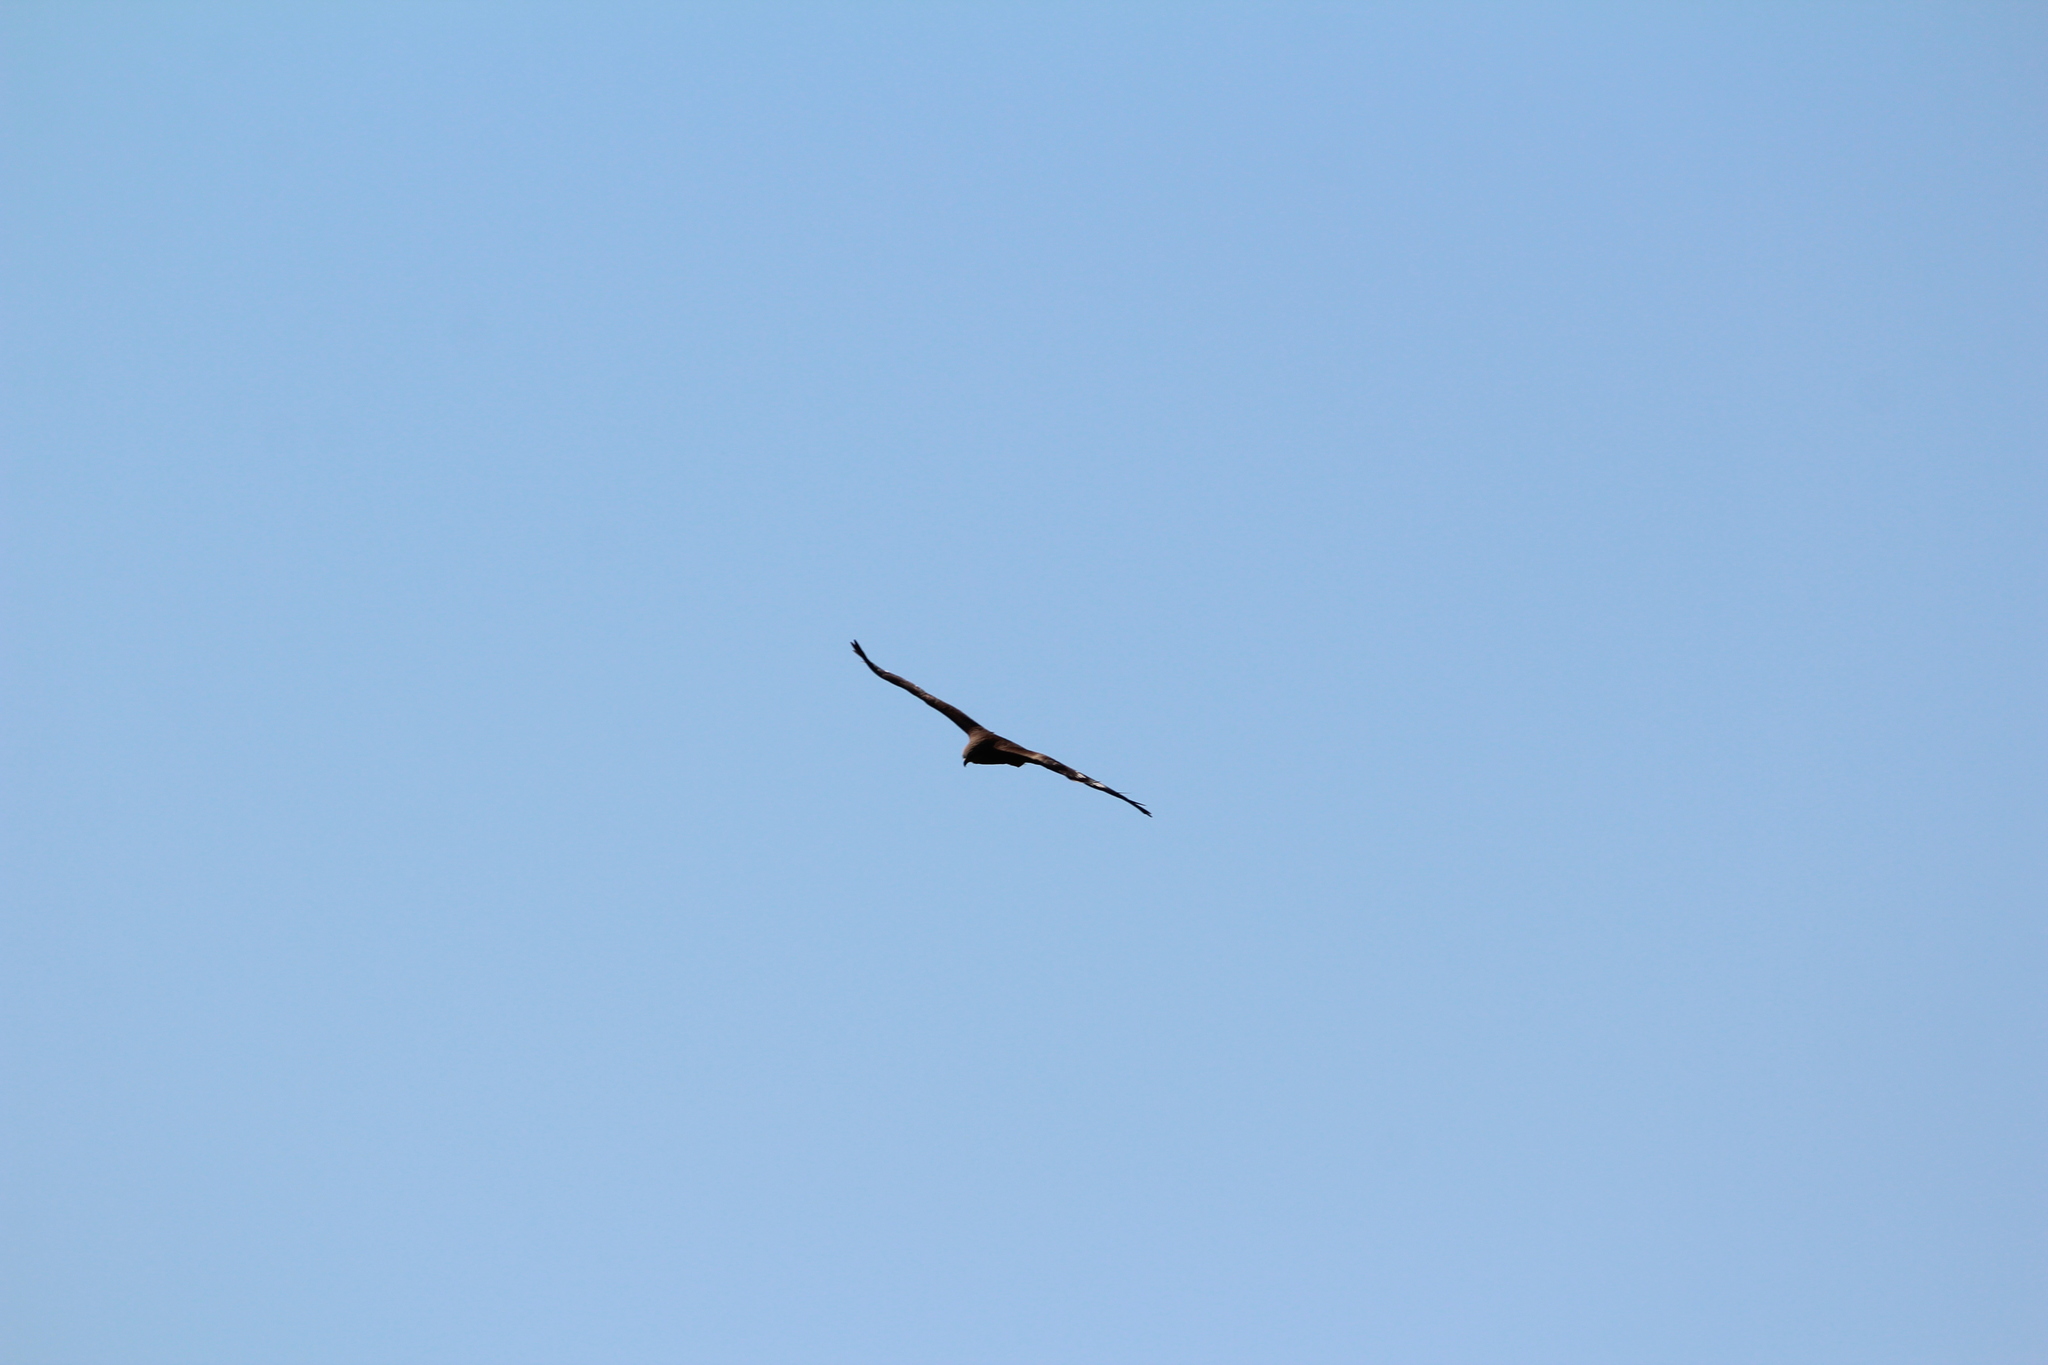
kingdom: Animalia
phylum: Chordata
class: Aves
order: Accipitriformes
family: Accipitridae
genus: Milvus
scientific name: Milvus migrans
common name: Black kite
